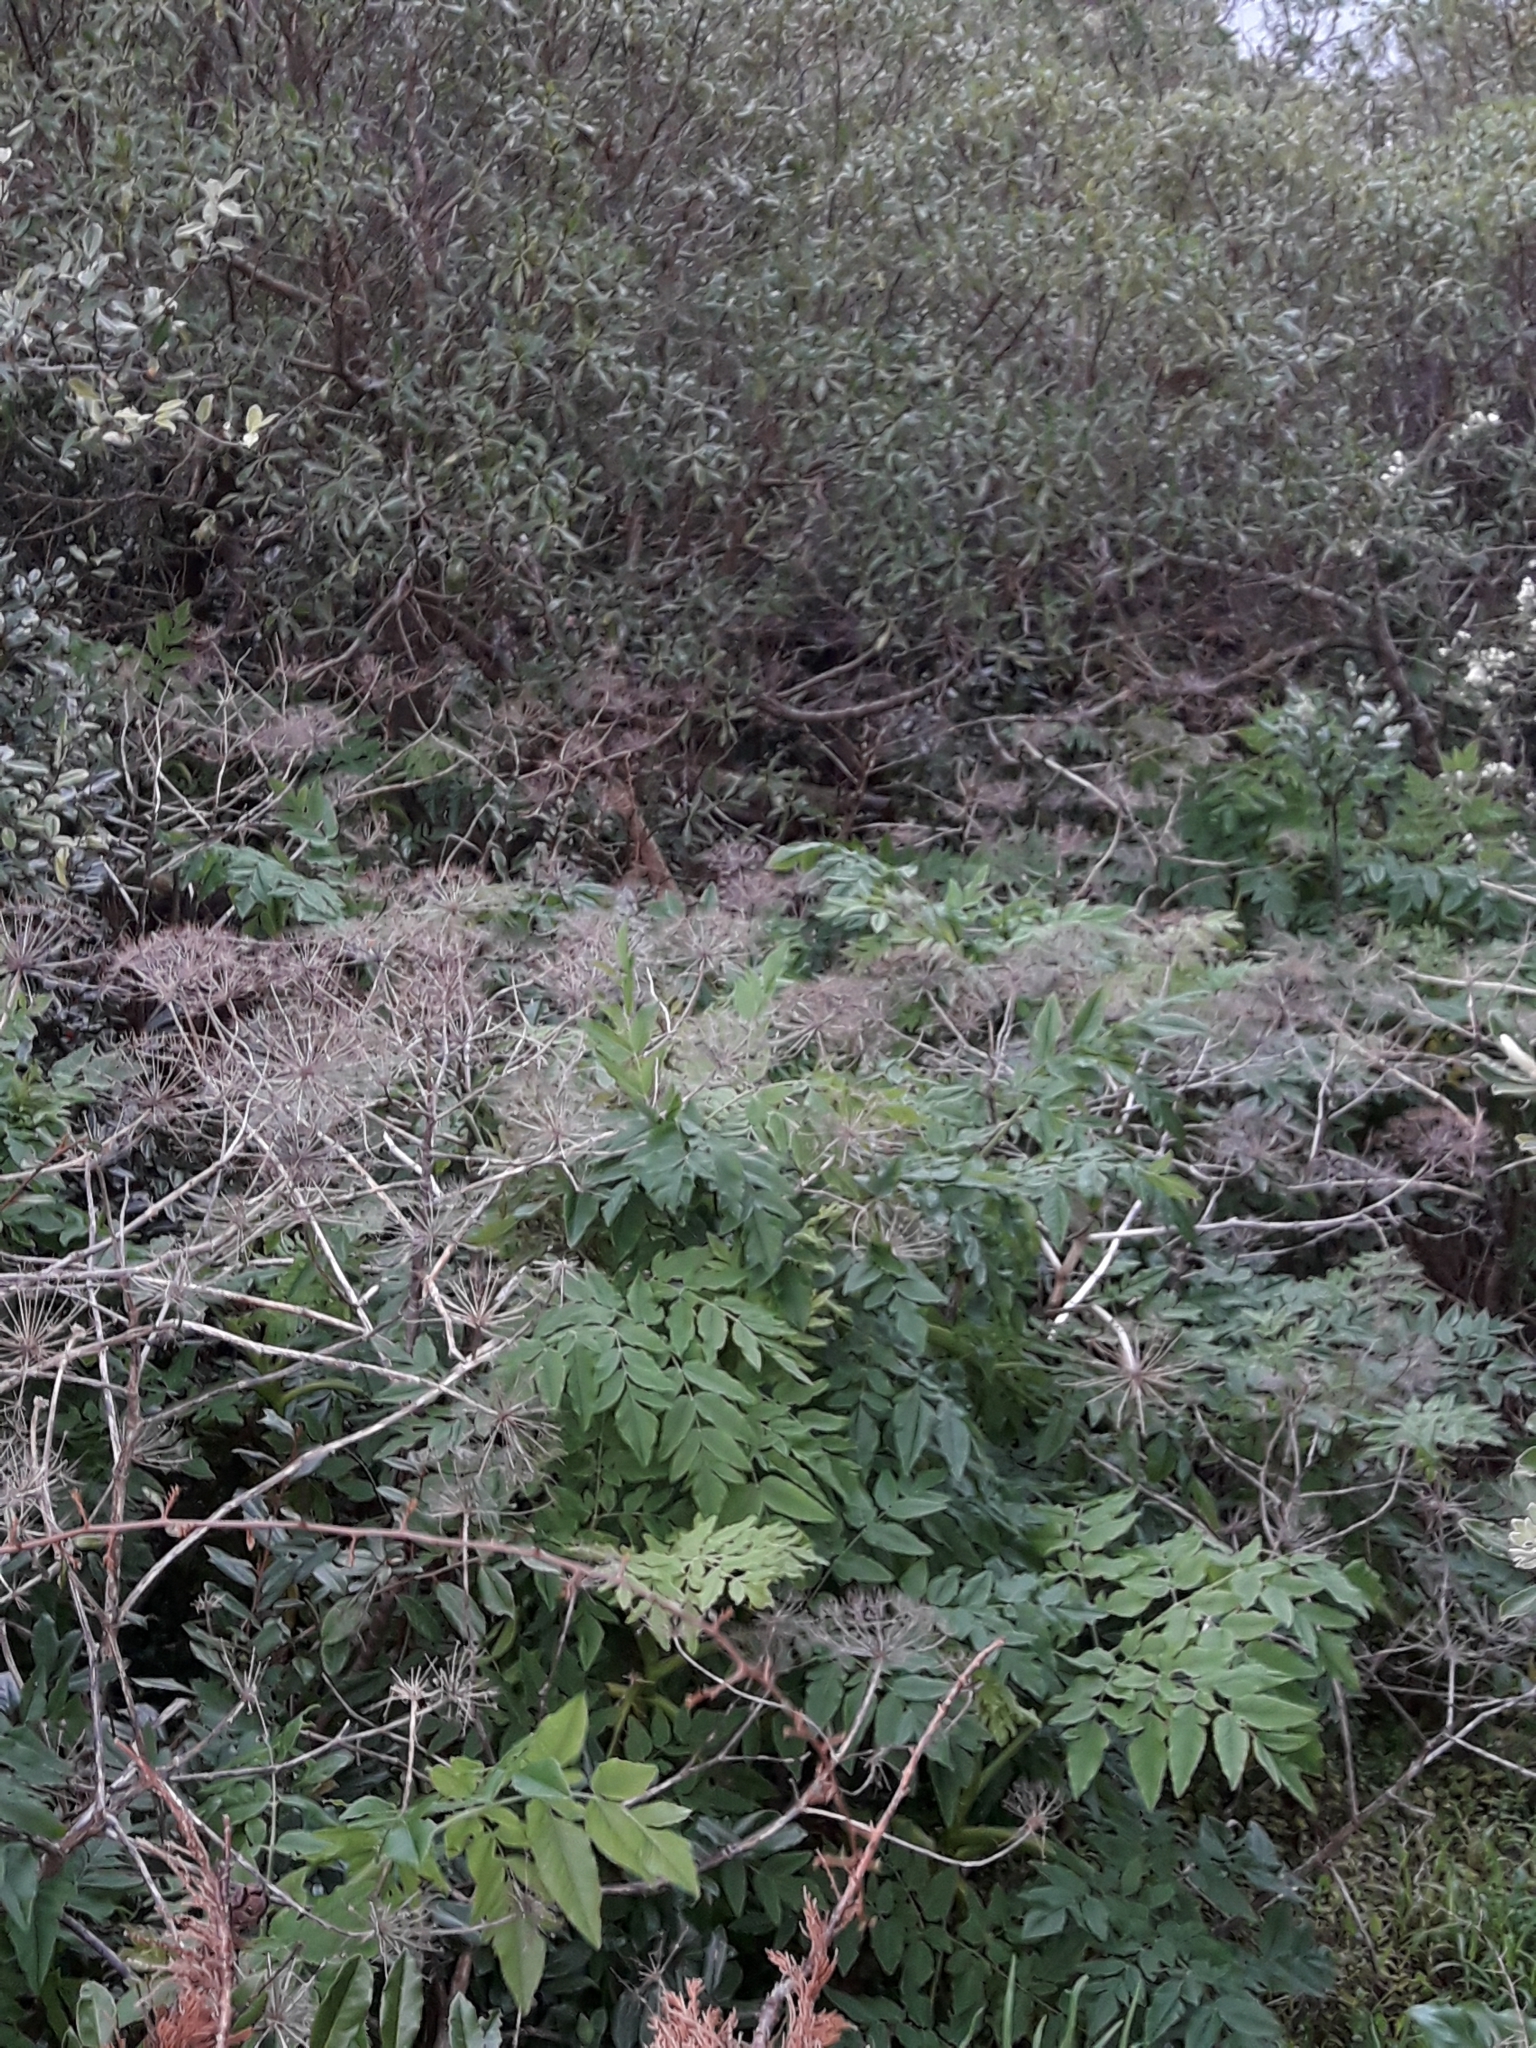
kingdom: Plantae
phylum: Tracheophyta
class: Magnoliopsida
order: Apiales
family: Apiaceae
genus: Daucus
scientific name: Daucus decipiens
